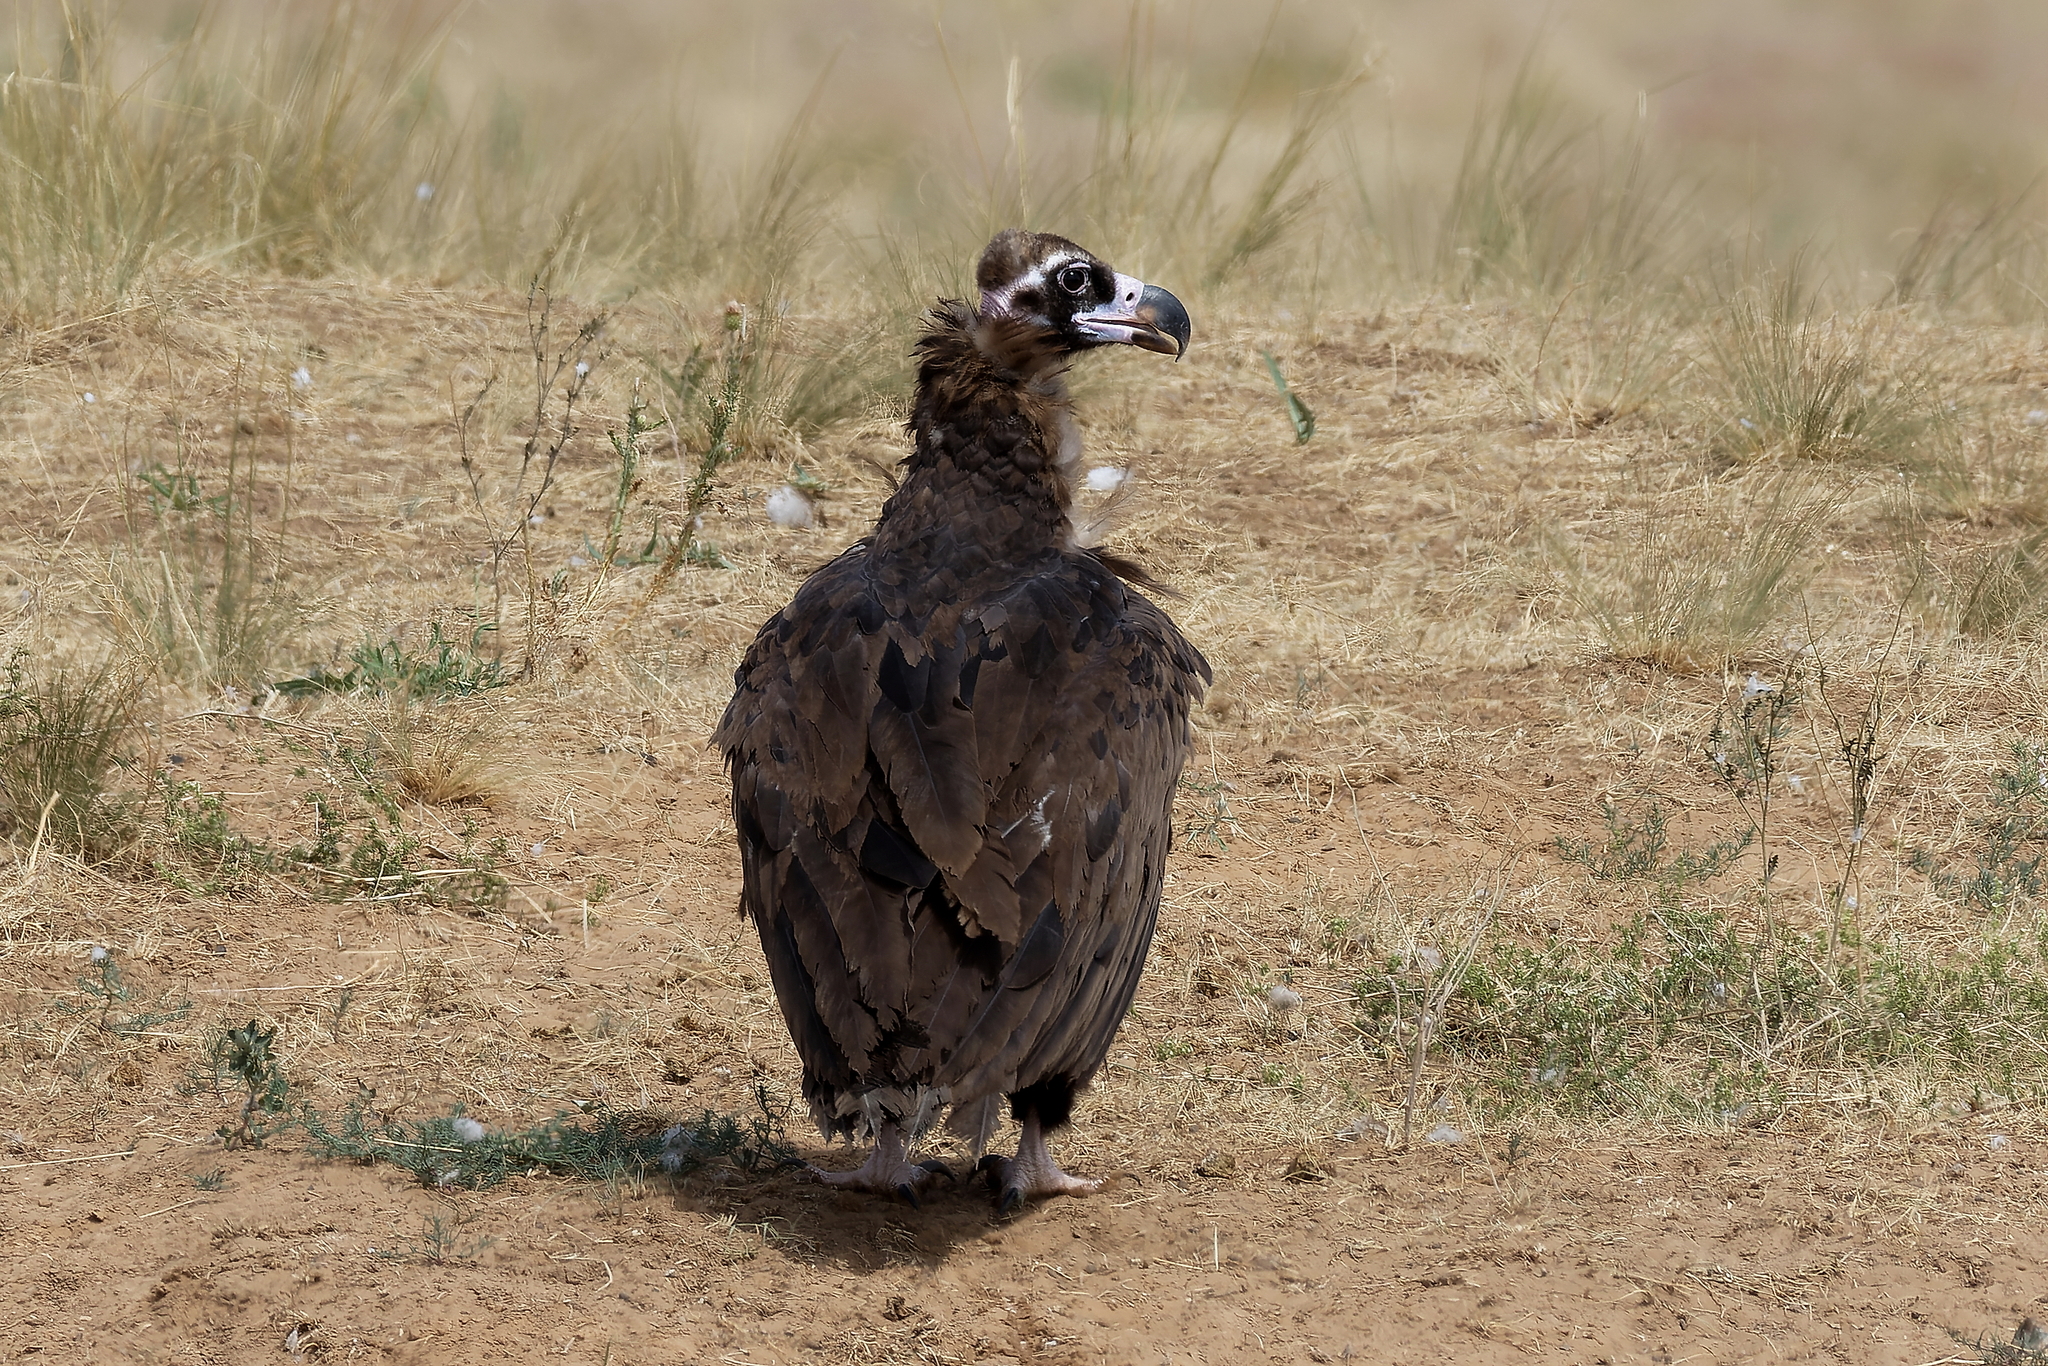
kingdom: Animalia
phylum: Chordata
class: Aves
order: Accipitriformes
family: Accipitridae
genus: Aegypius
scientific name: Aegypius monachus
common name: Cinereous vulture
